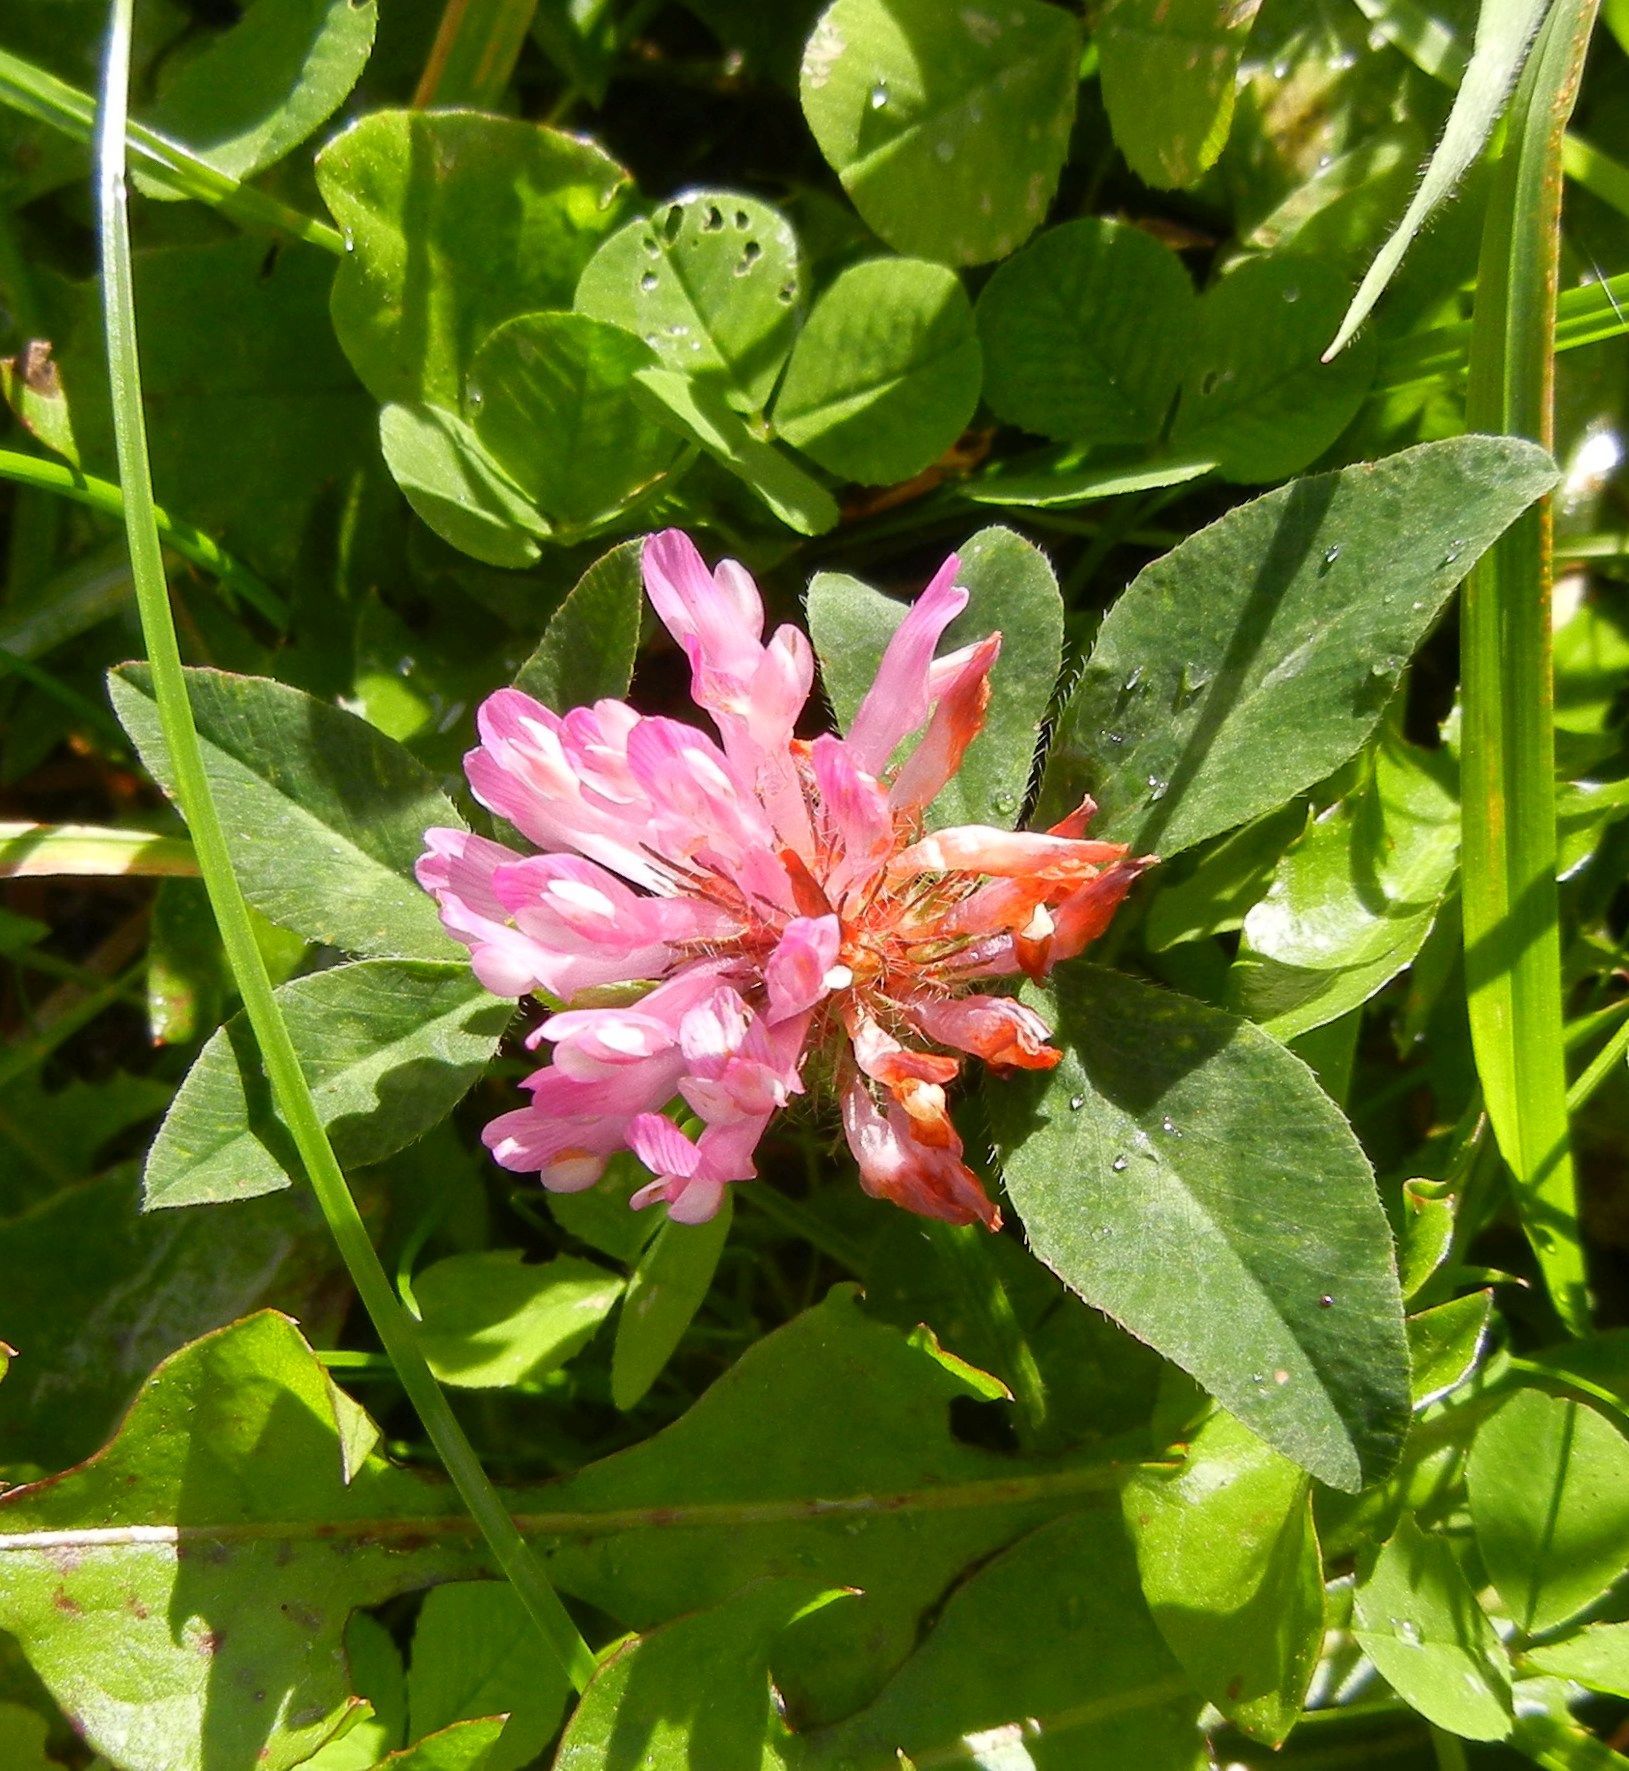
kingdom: Plantae
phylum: Tracheophyta
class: Magnoliopsida
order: Fabales
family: Fabaceae
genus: Trifolium
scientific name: Trifolium pratense
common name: Red clover
